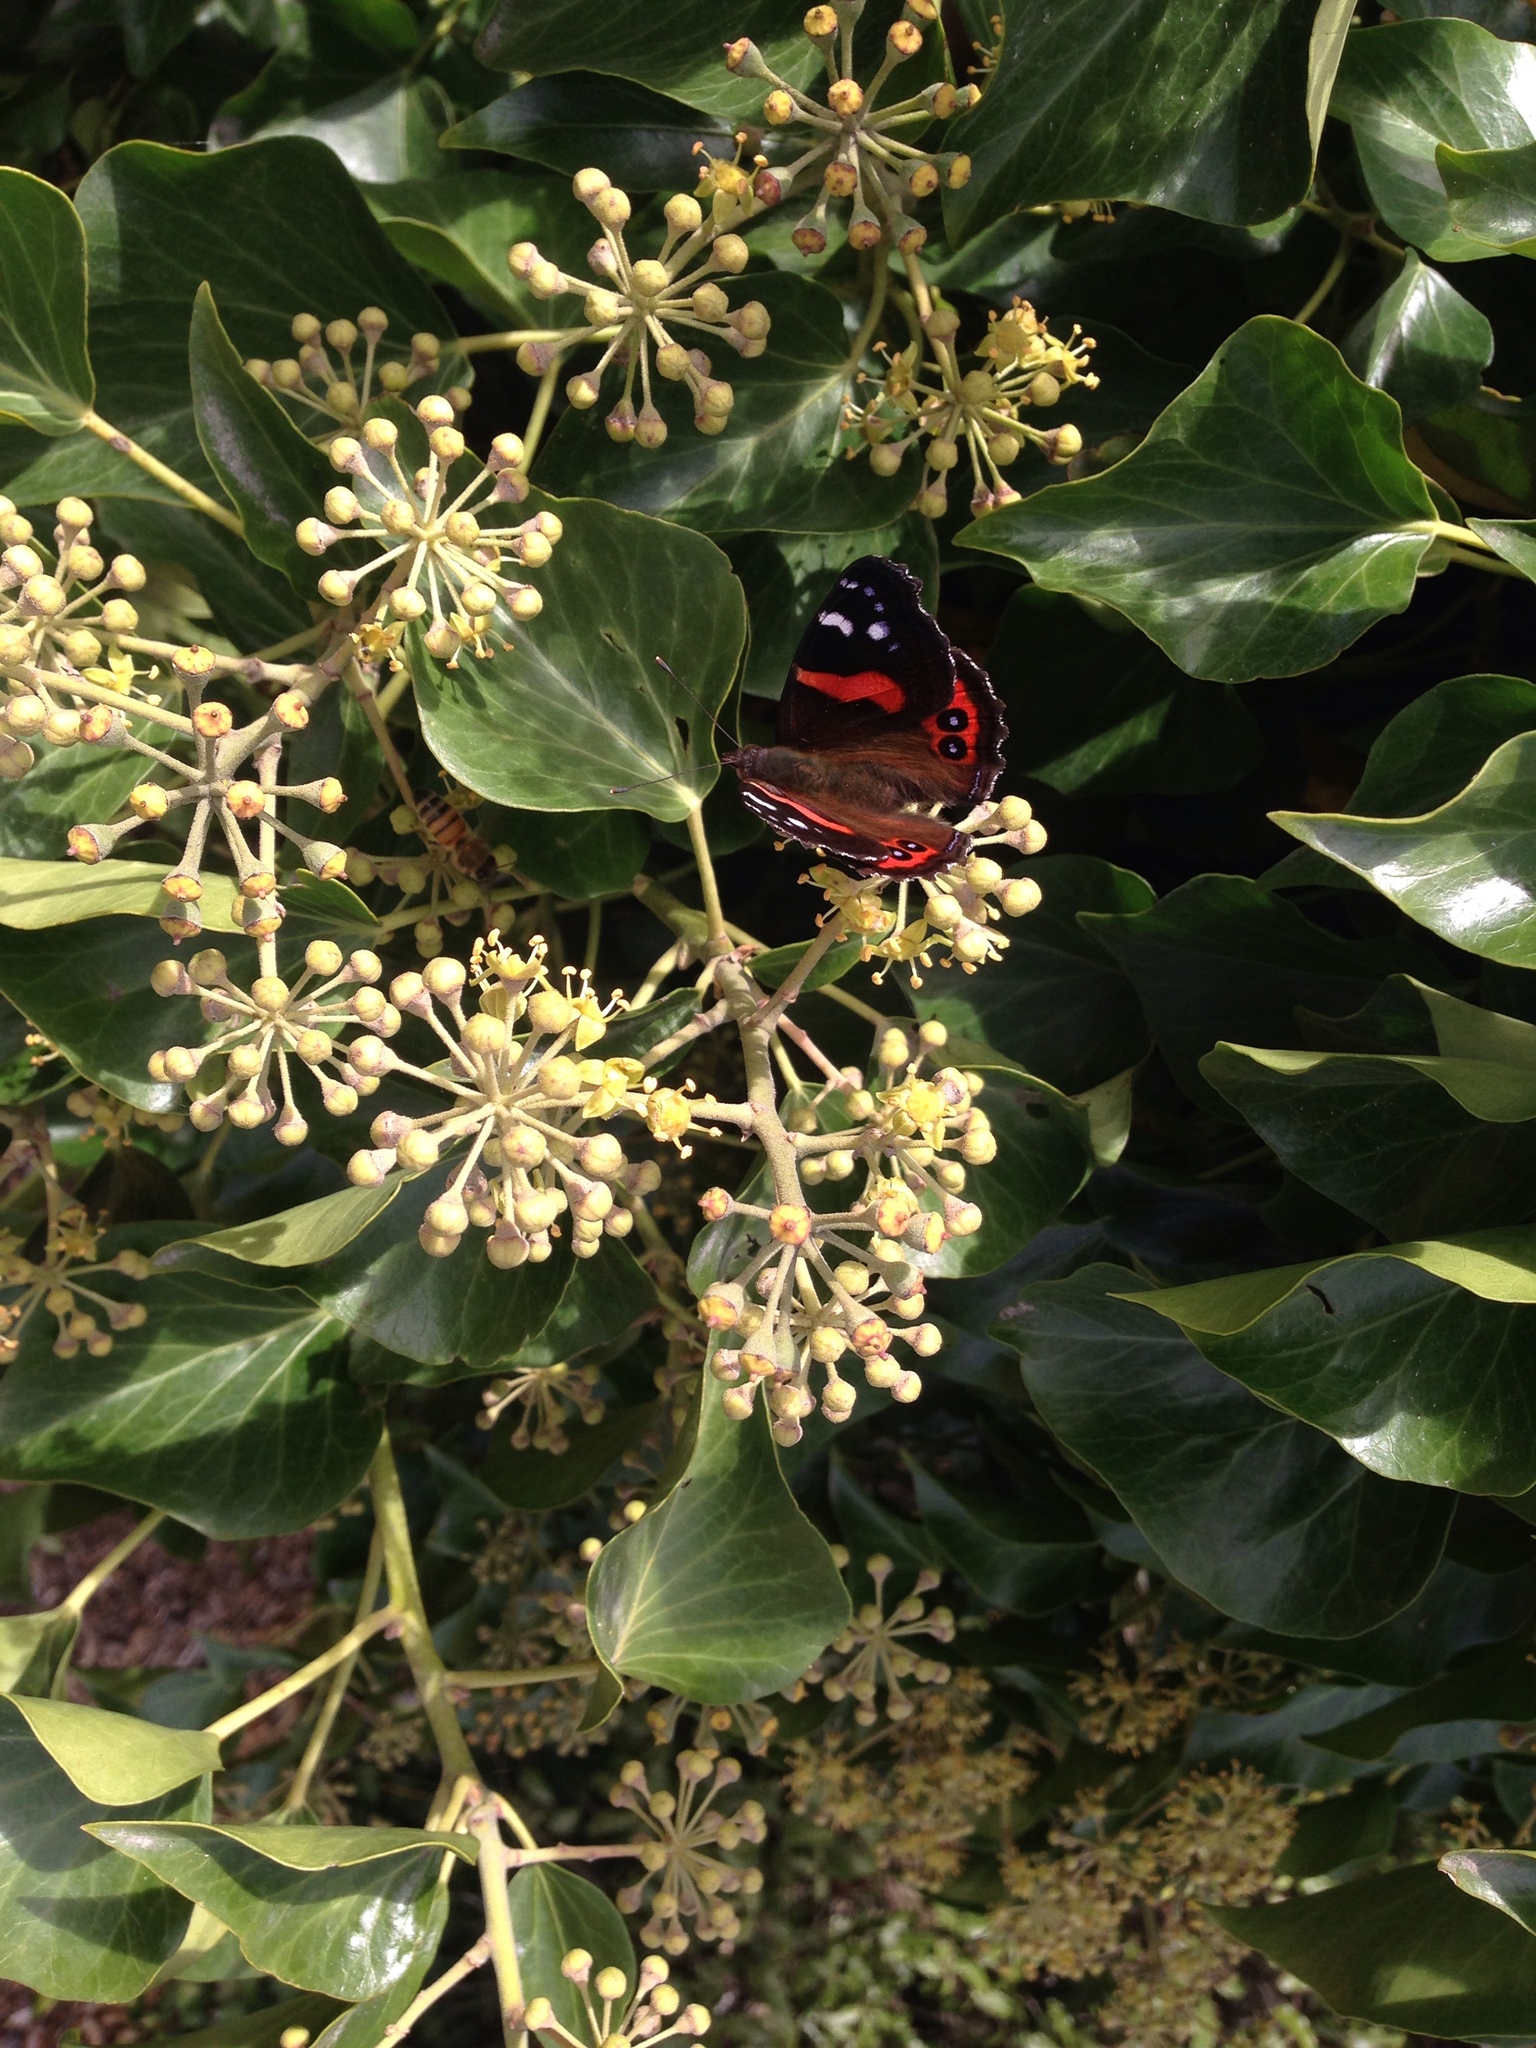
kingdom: Animalia
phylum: Arthropoda
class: Insecta
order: Lepidoptera
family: Nymphalidae
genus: Vanessa
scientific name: Vanessa gonerilla
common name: New zealand red admiral
